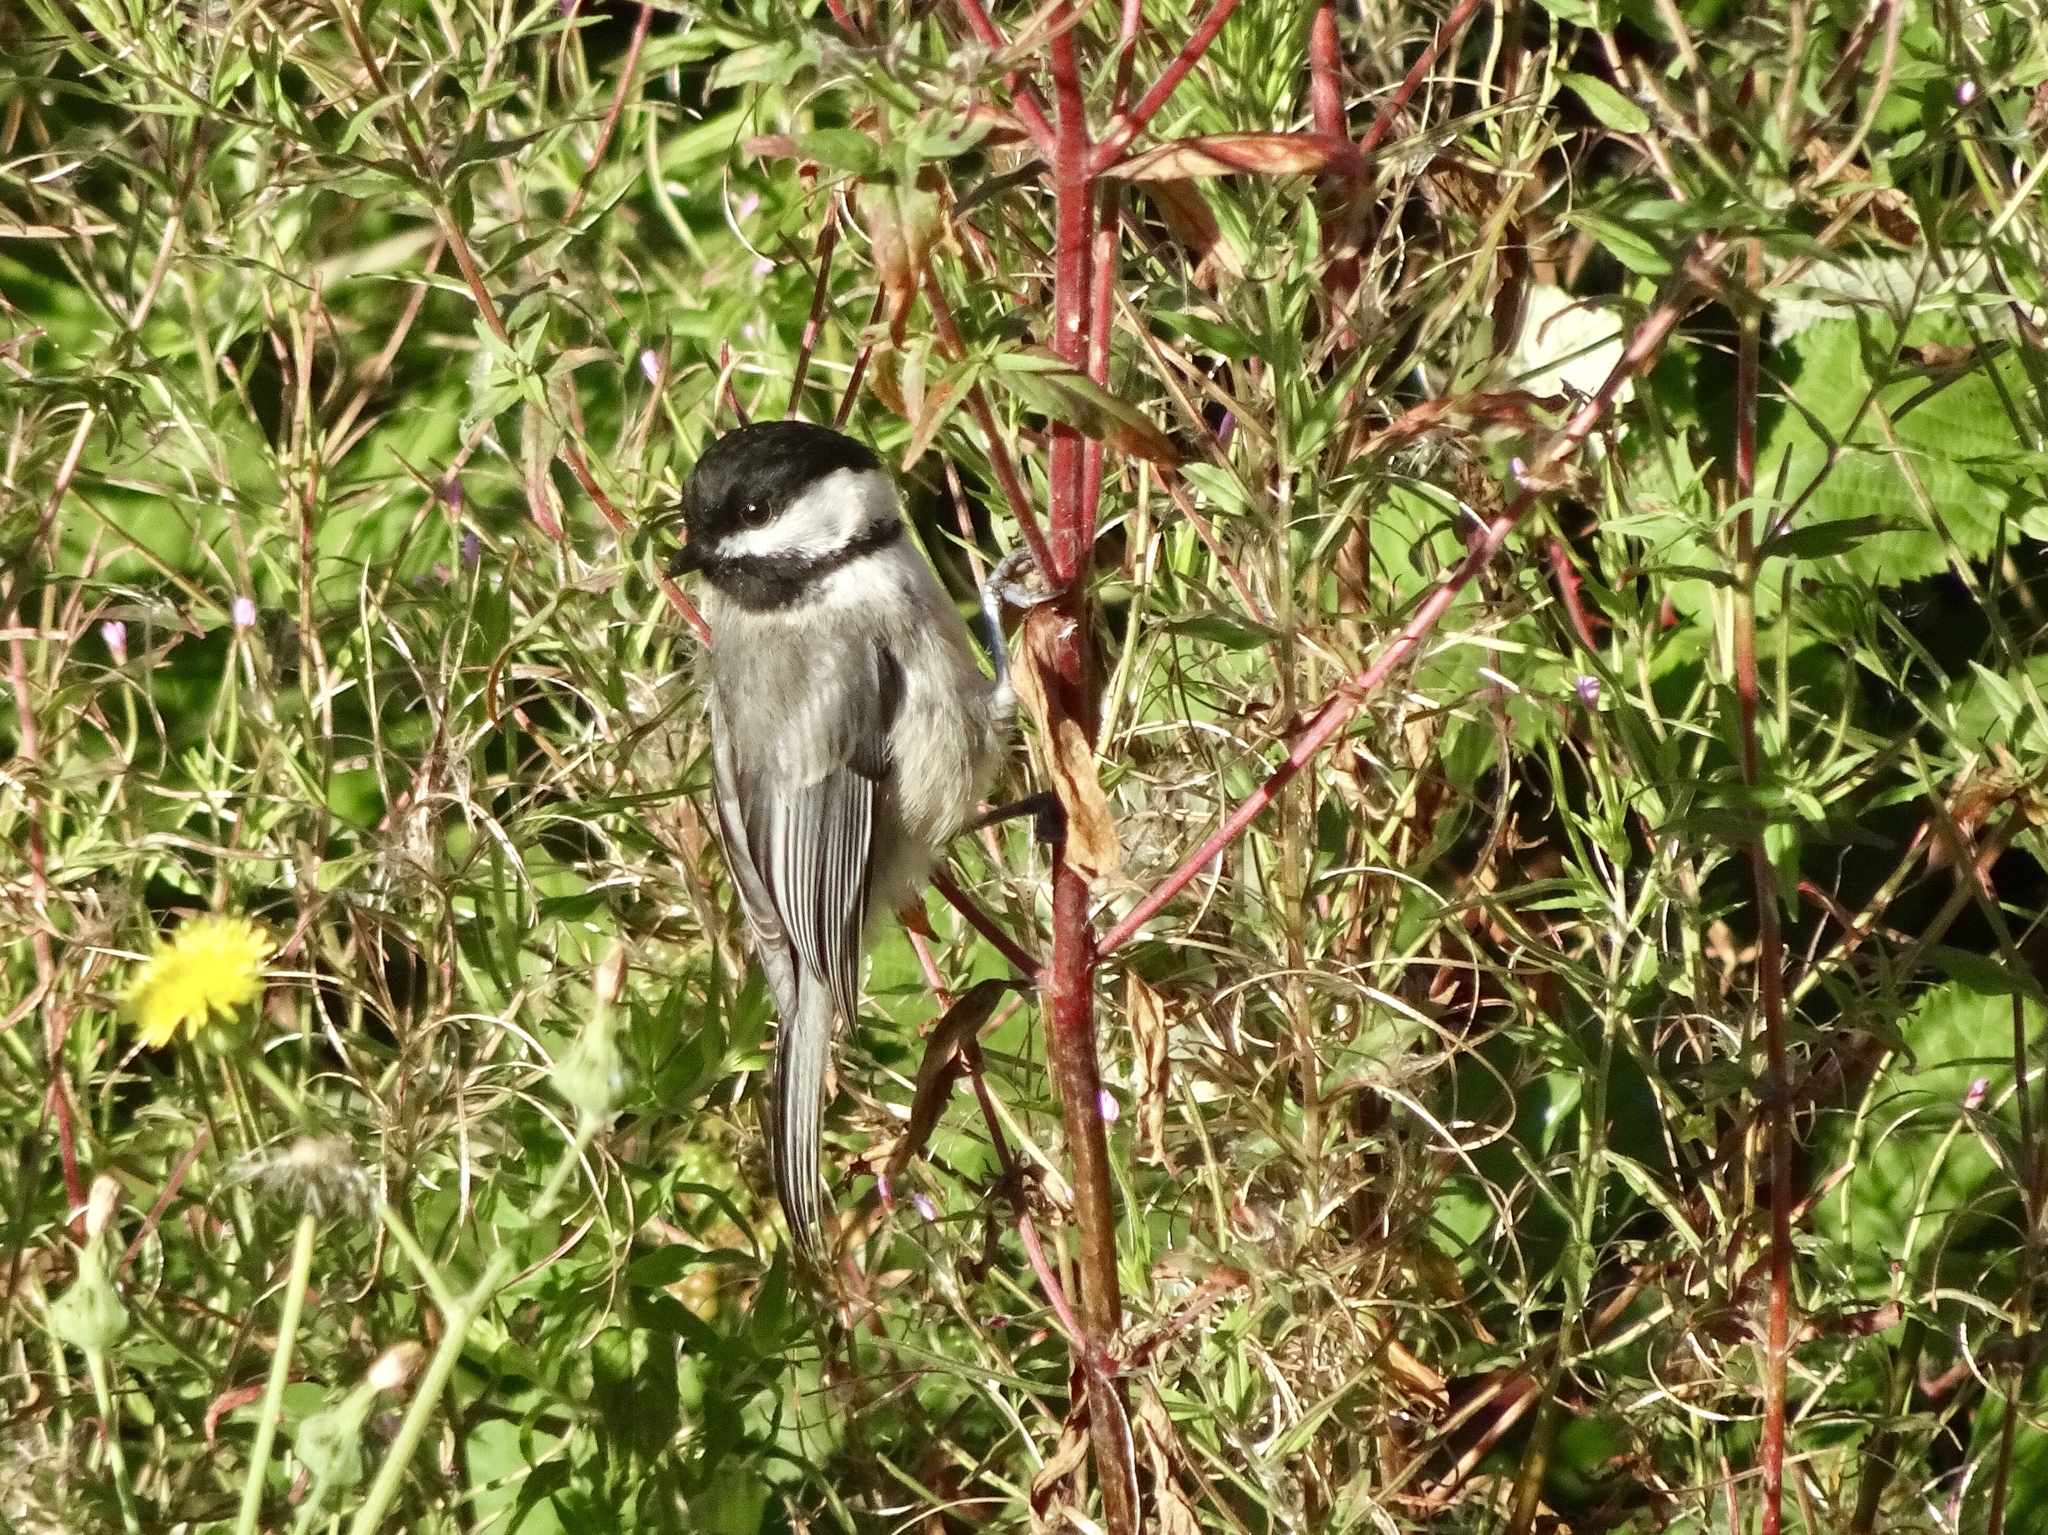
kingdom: Animalia
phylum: Chordata
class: Aves
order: Passeriformes
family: Paridae
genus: Poecile
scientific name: Poecile atricapillus
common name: Black-capped chickadee
